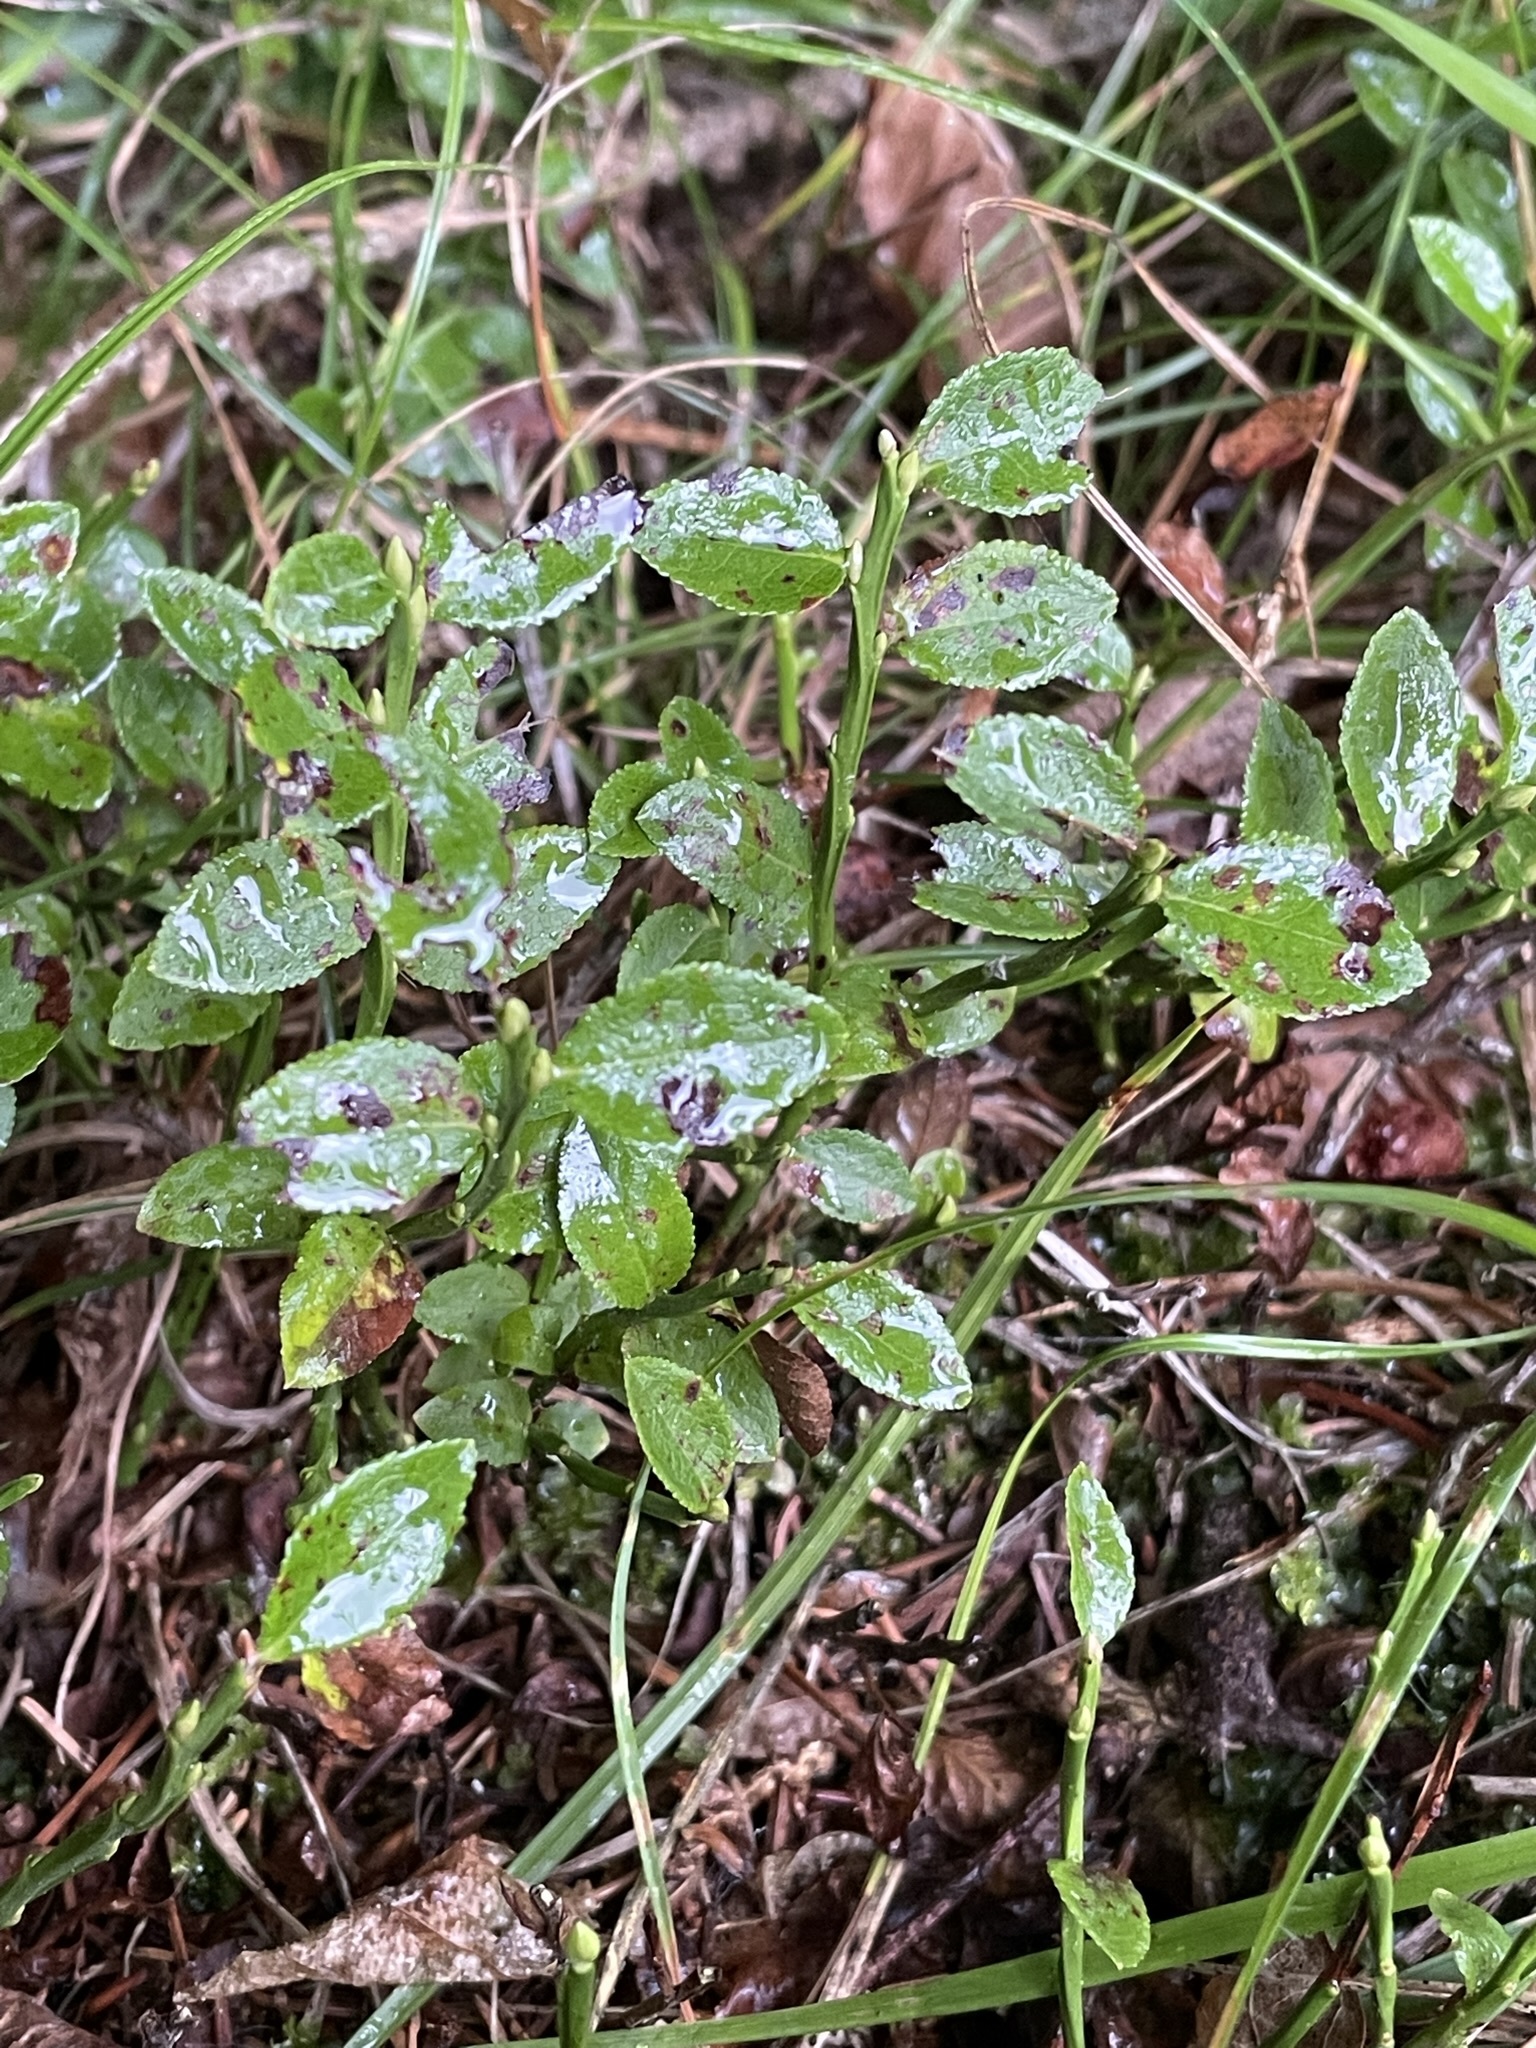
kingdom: Plantae
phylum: Tracheophyta
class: Magnoliopsida
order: Ericales
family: Ericaceae
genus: Vaccinium
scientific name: Vaccinium myrtillus
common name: Bilberry
